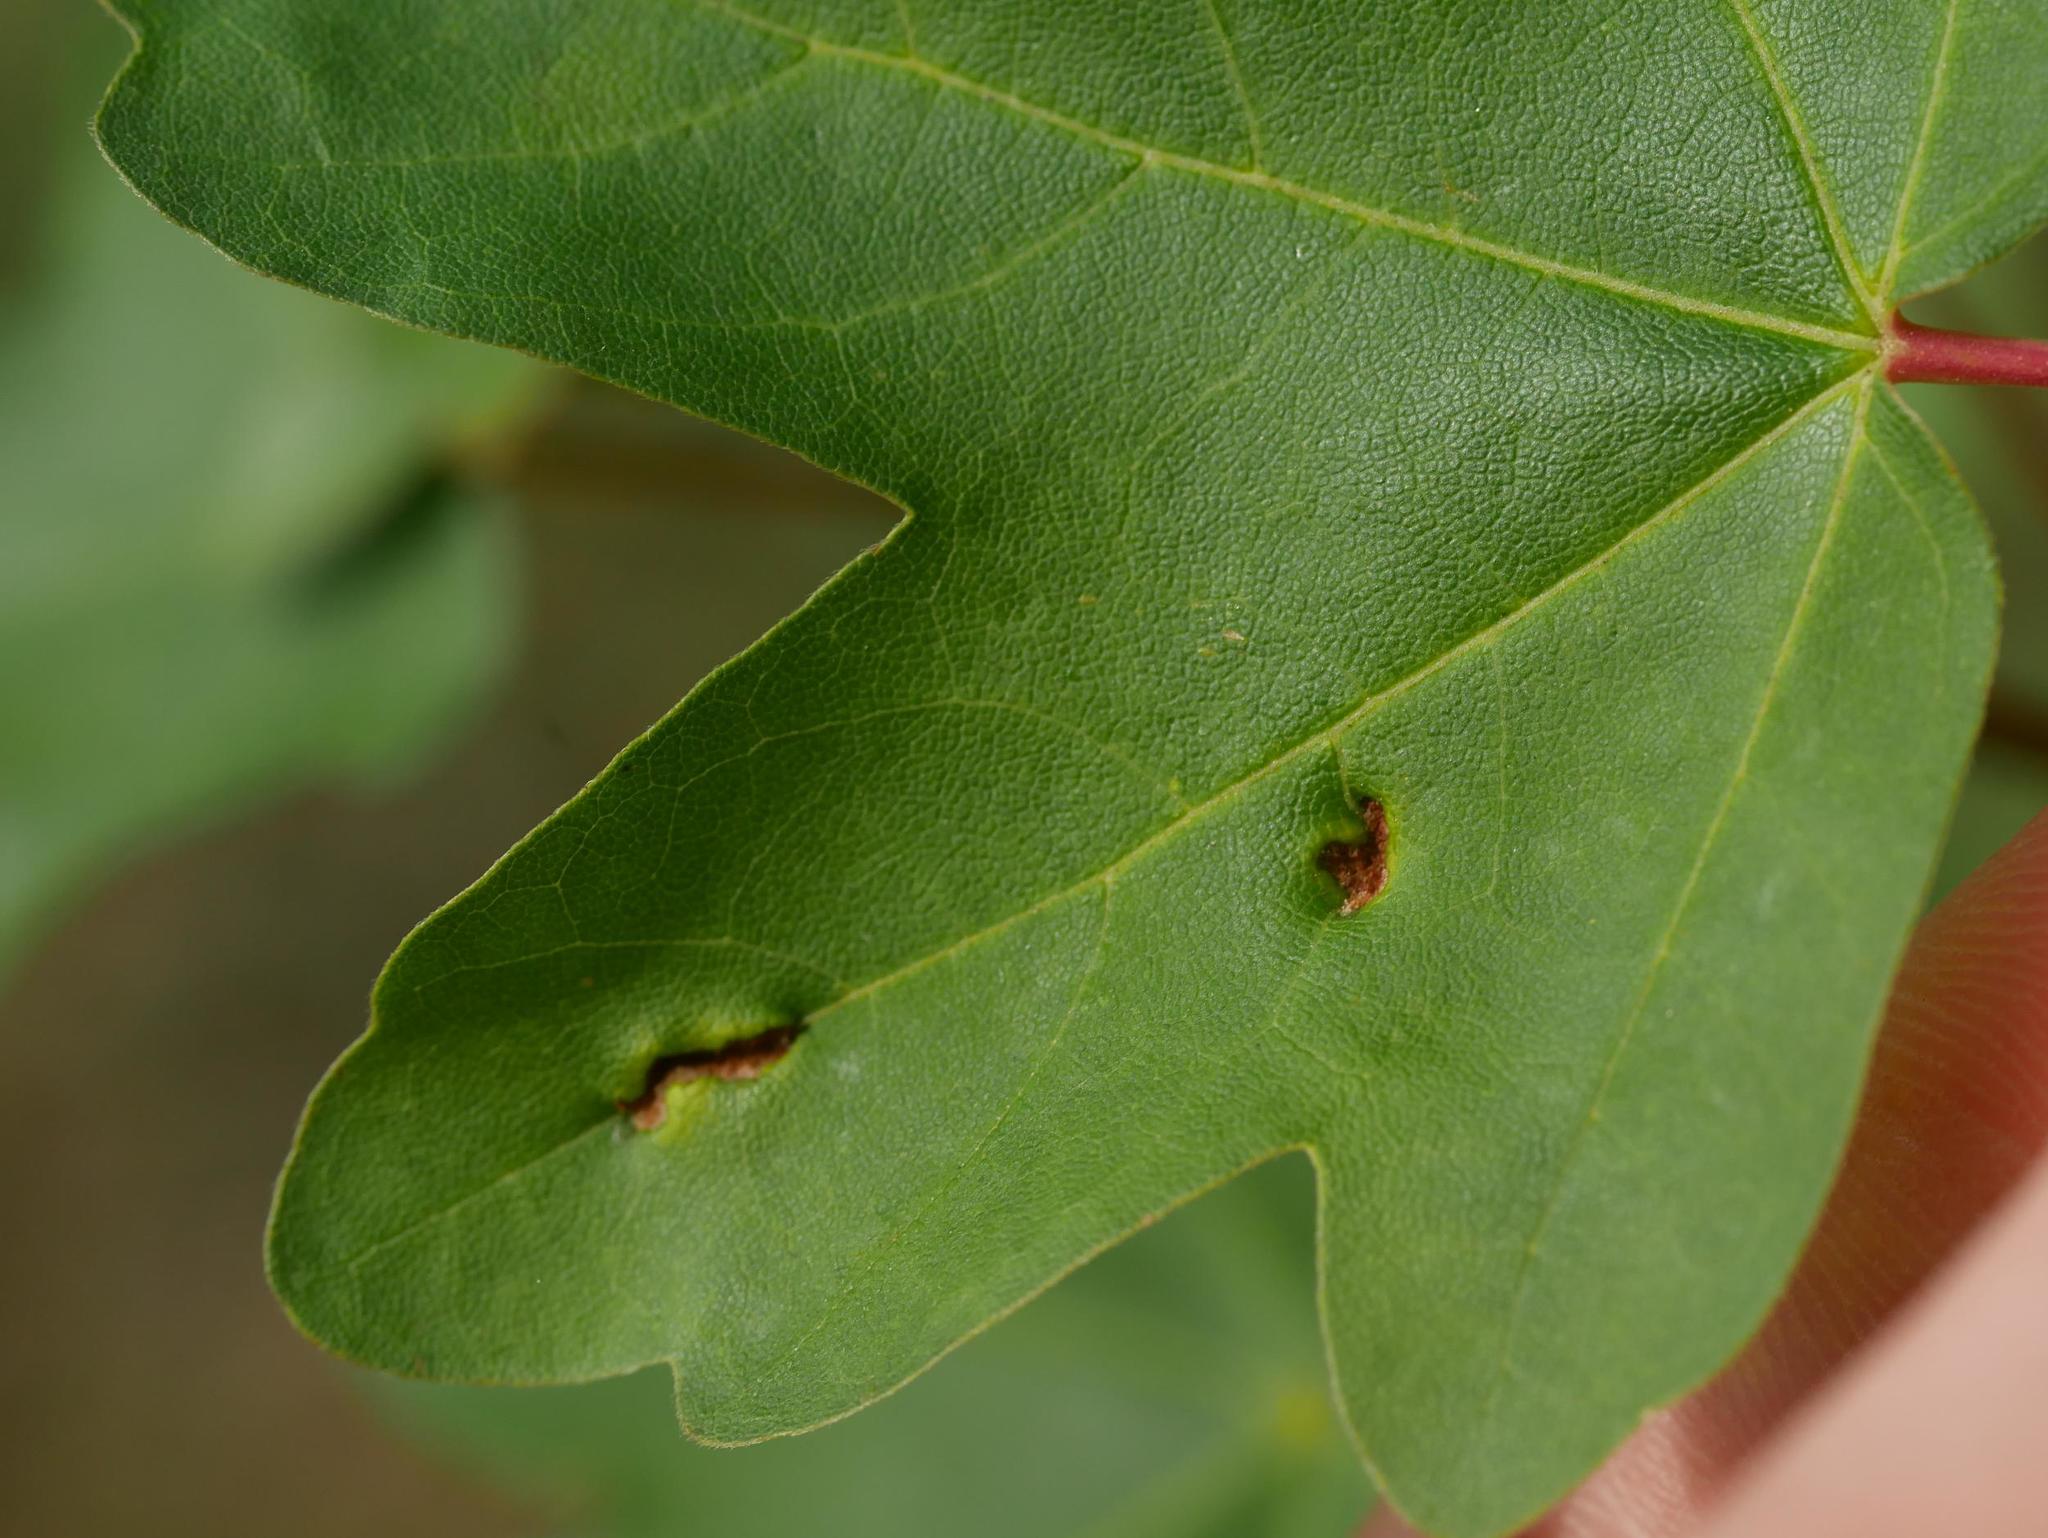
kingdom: Animalia
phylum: Arthropoda
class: Arachnida
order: Trombidiformes
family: Eriophyidae
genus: Aceria
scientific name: Aceria carinifex
